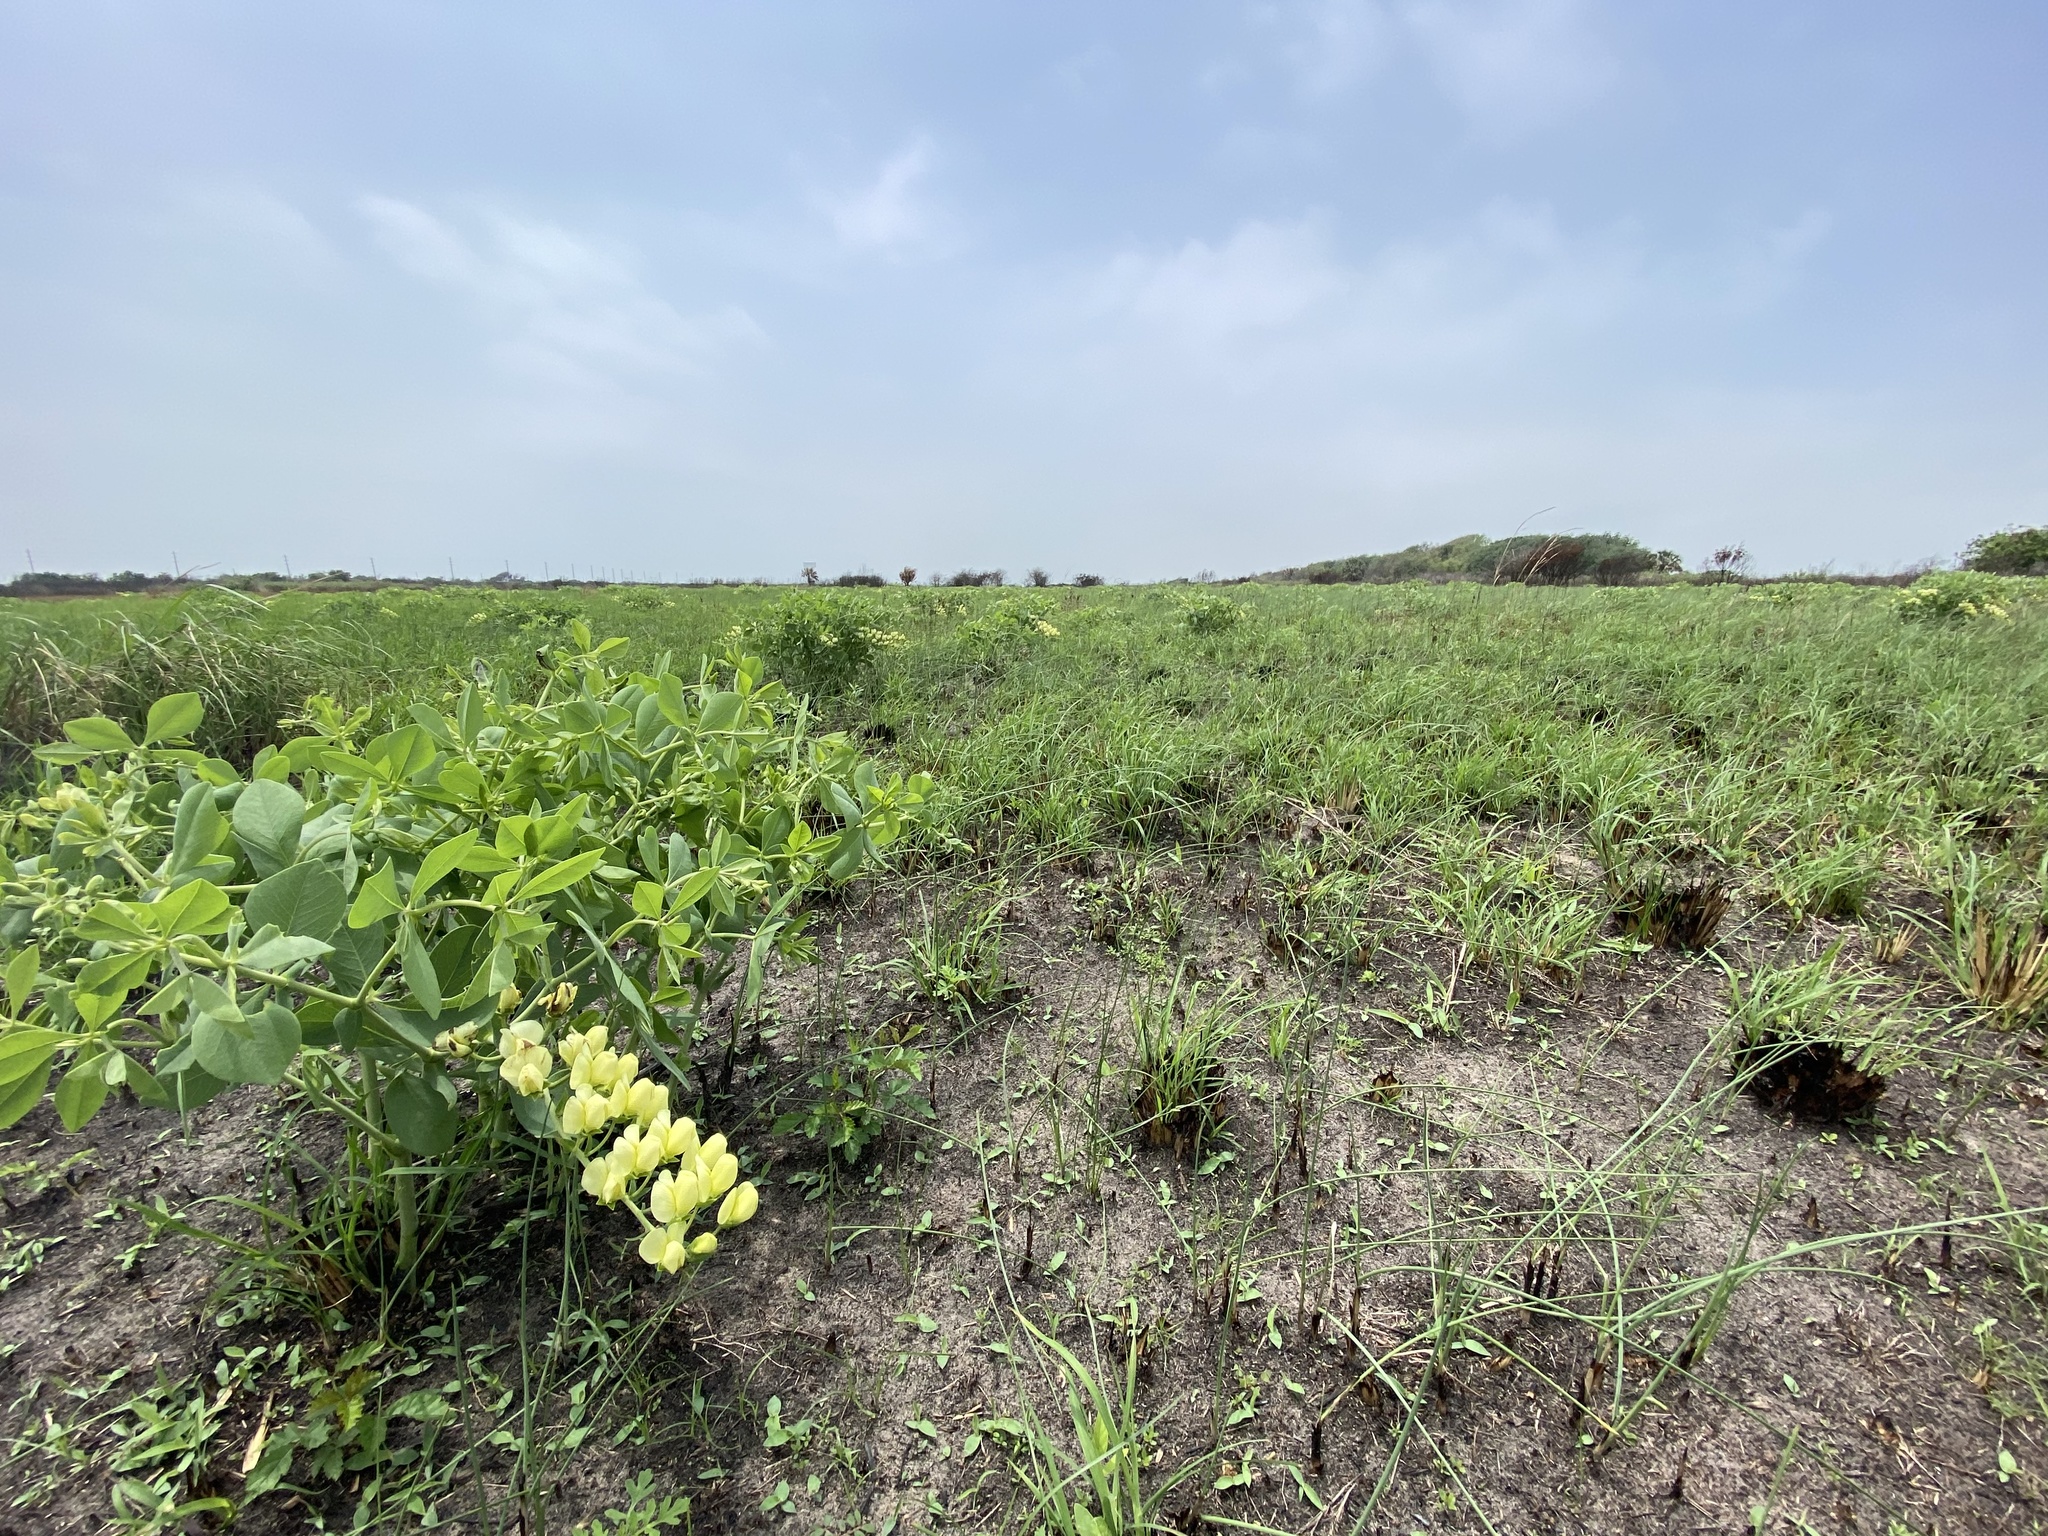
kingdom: Plantae
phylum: Tracheophyta
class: Magnoliopsida
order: Fabales
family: Fabaceae
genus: Baptisia
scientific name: Baptisia bracteata
